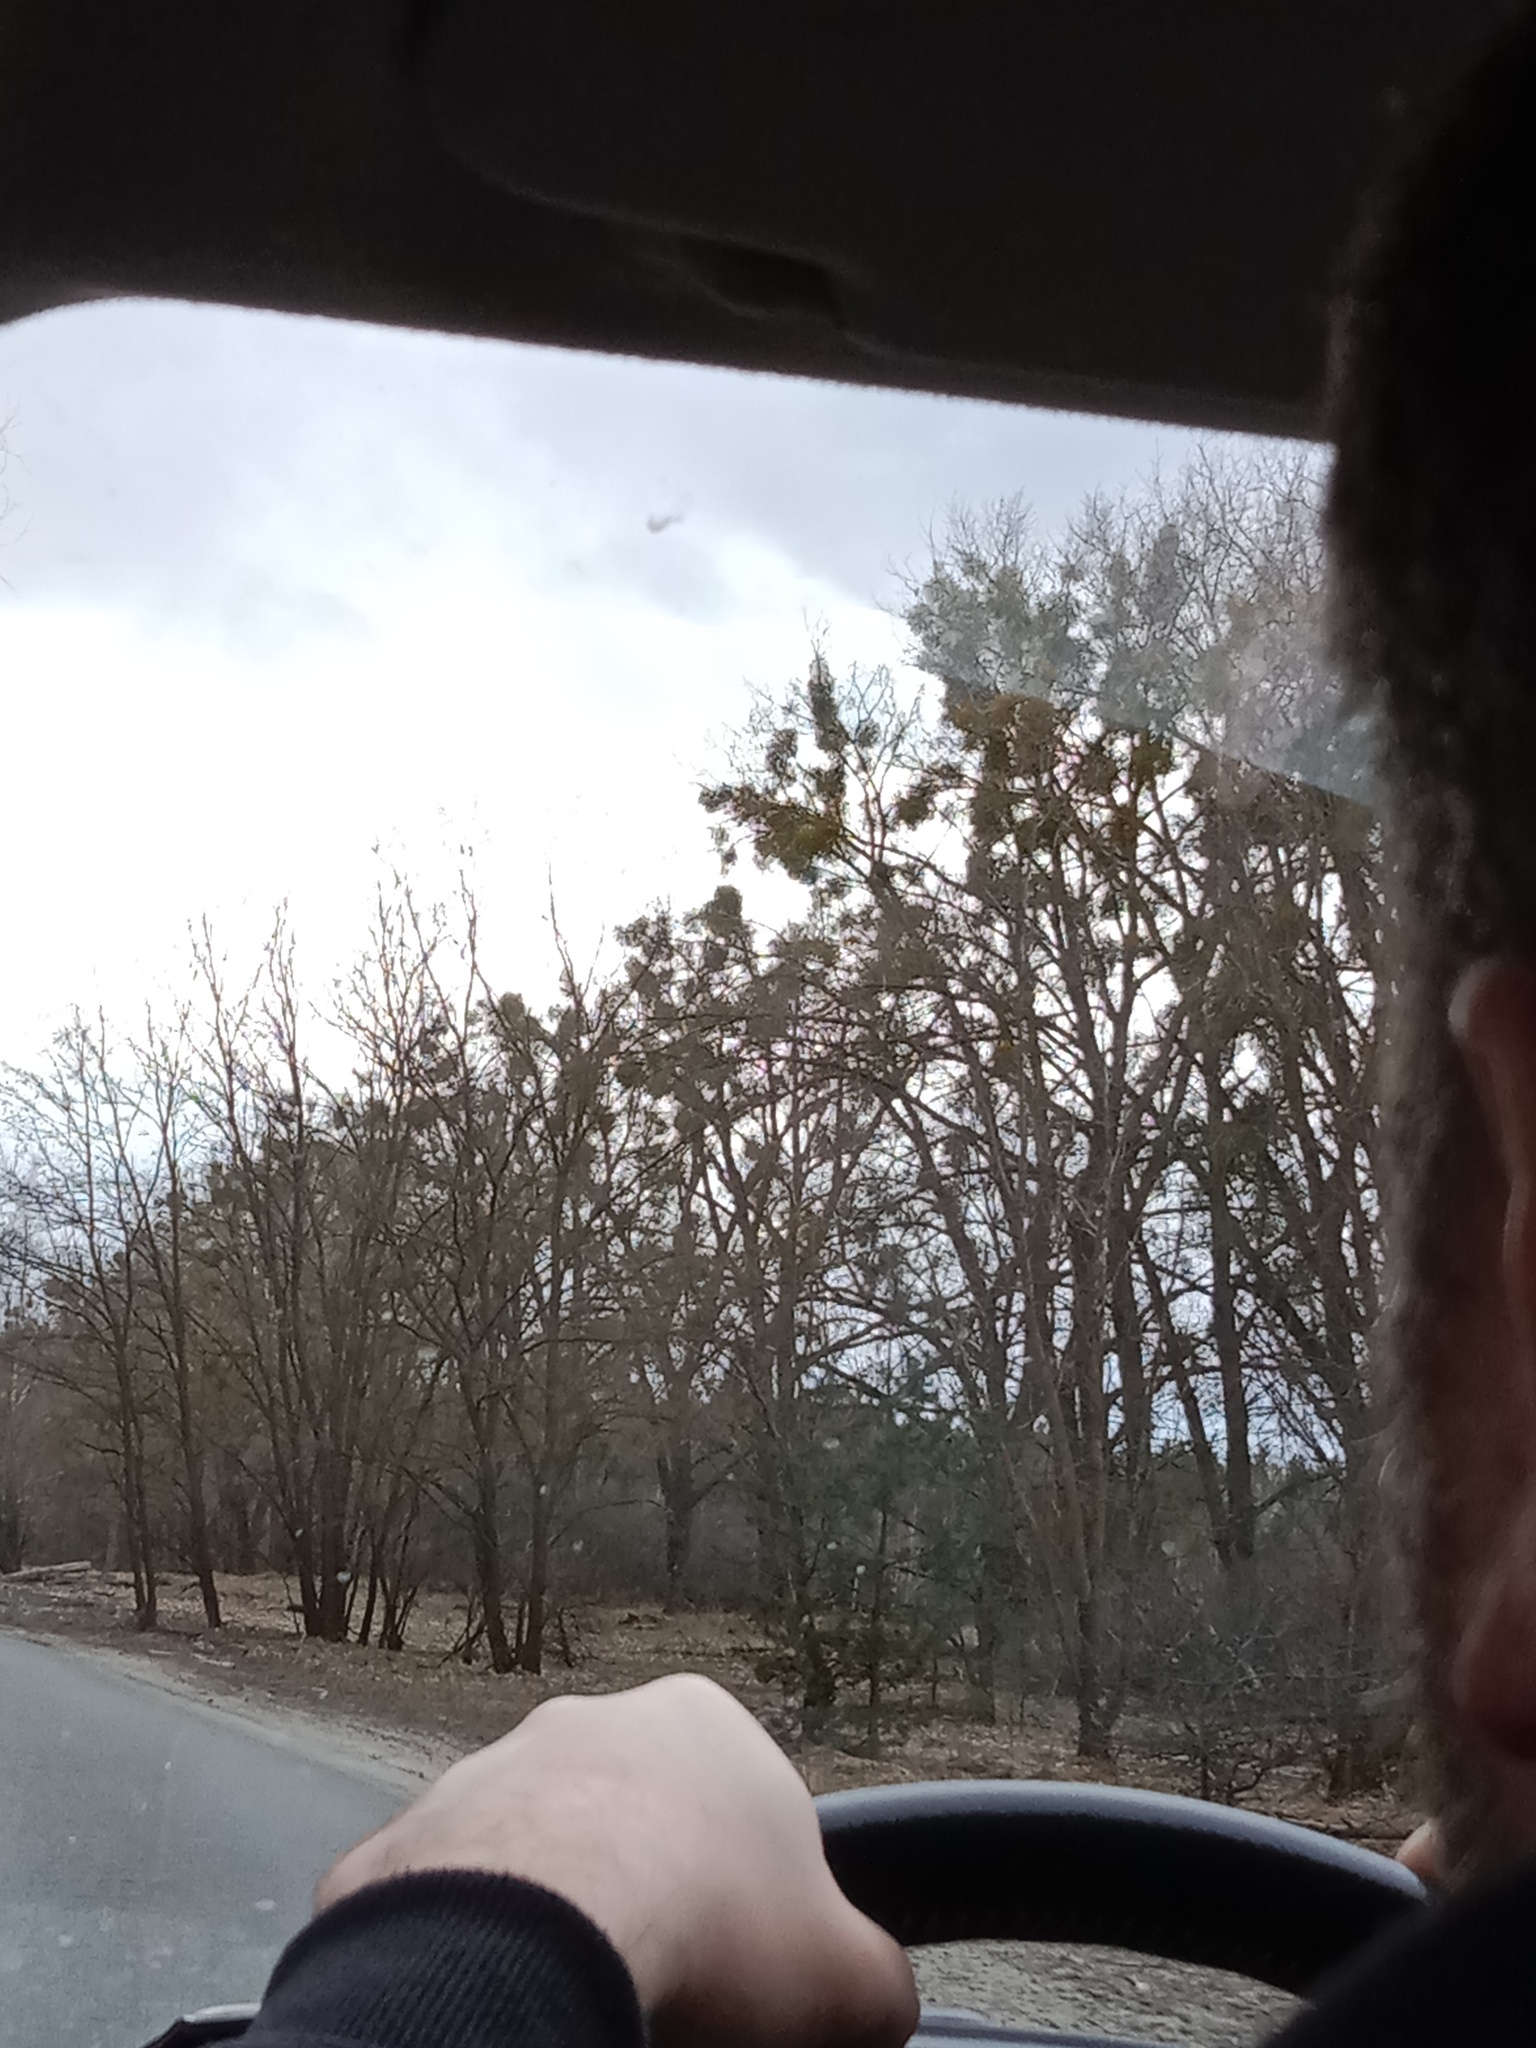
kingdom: Plantae
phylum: Tracheophyta
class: Magnoliopsida
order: Santalales
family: Viscaceae
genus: Viscum
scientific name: Viscum album
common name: Mistletoe
